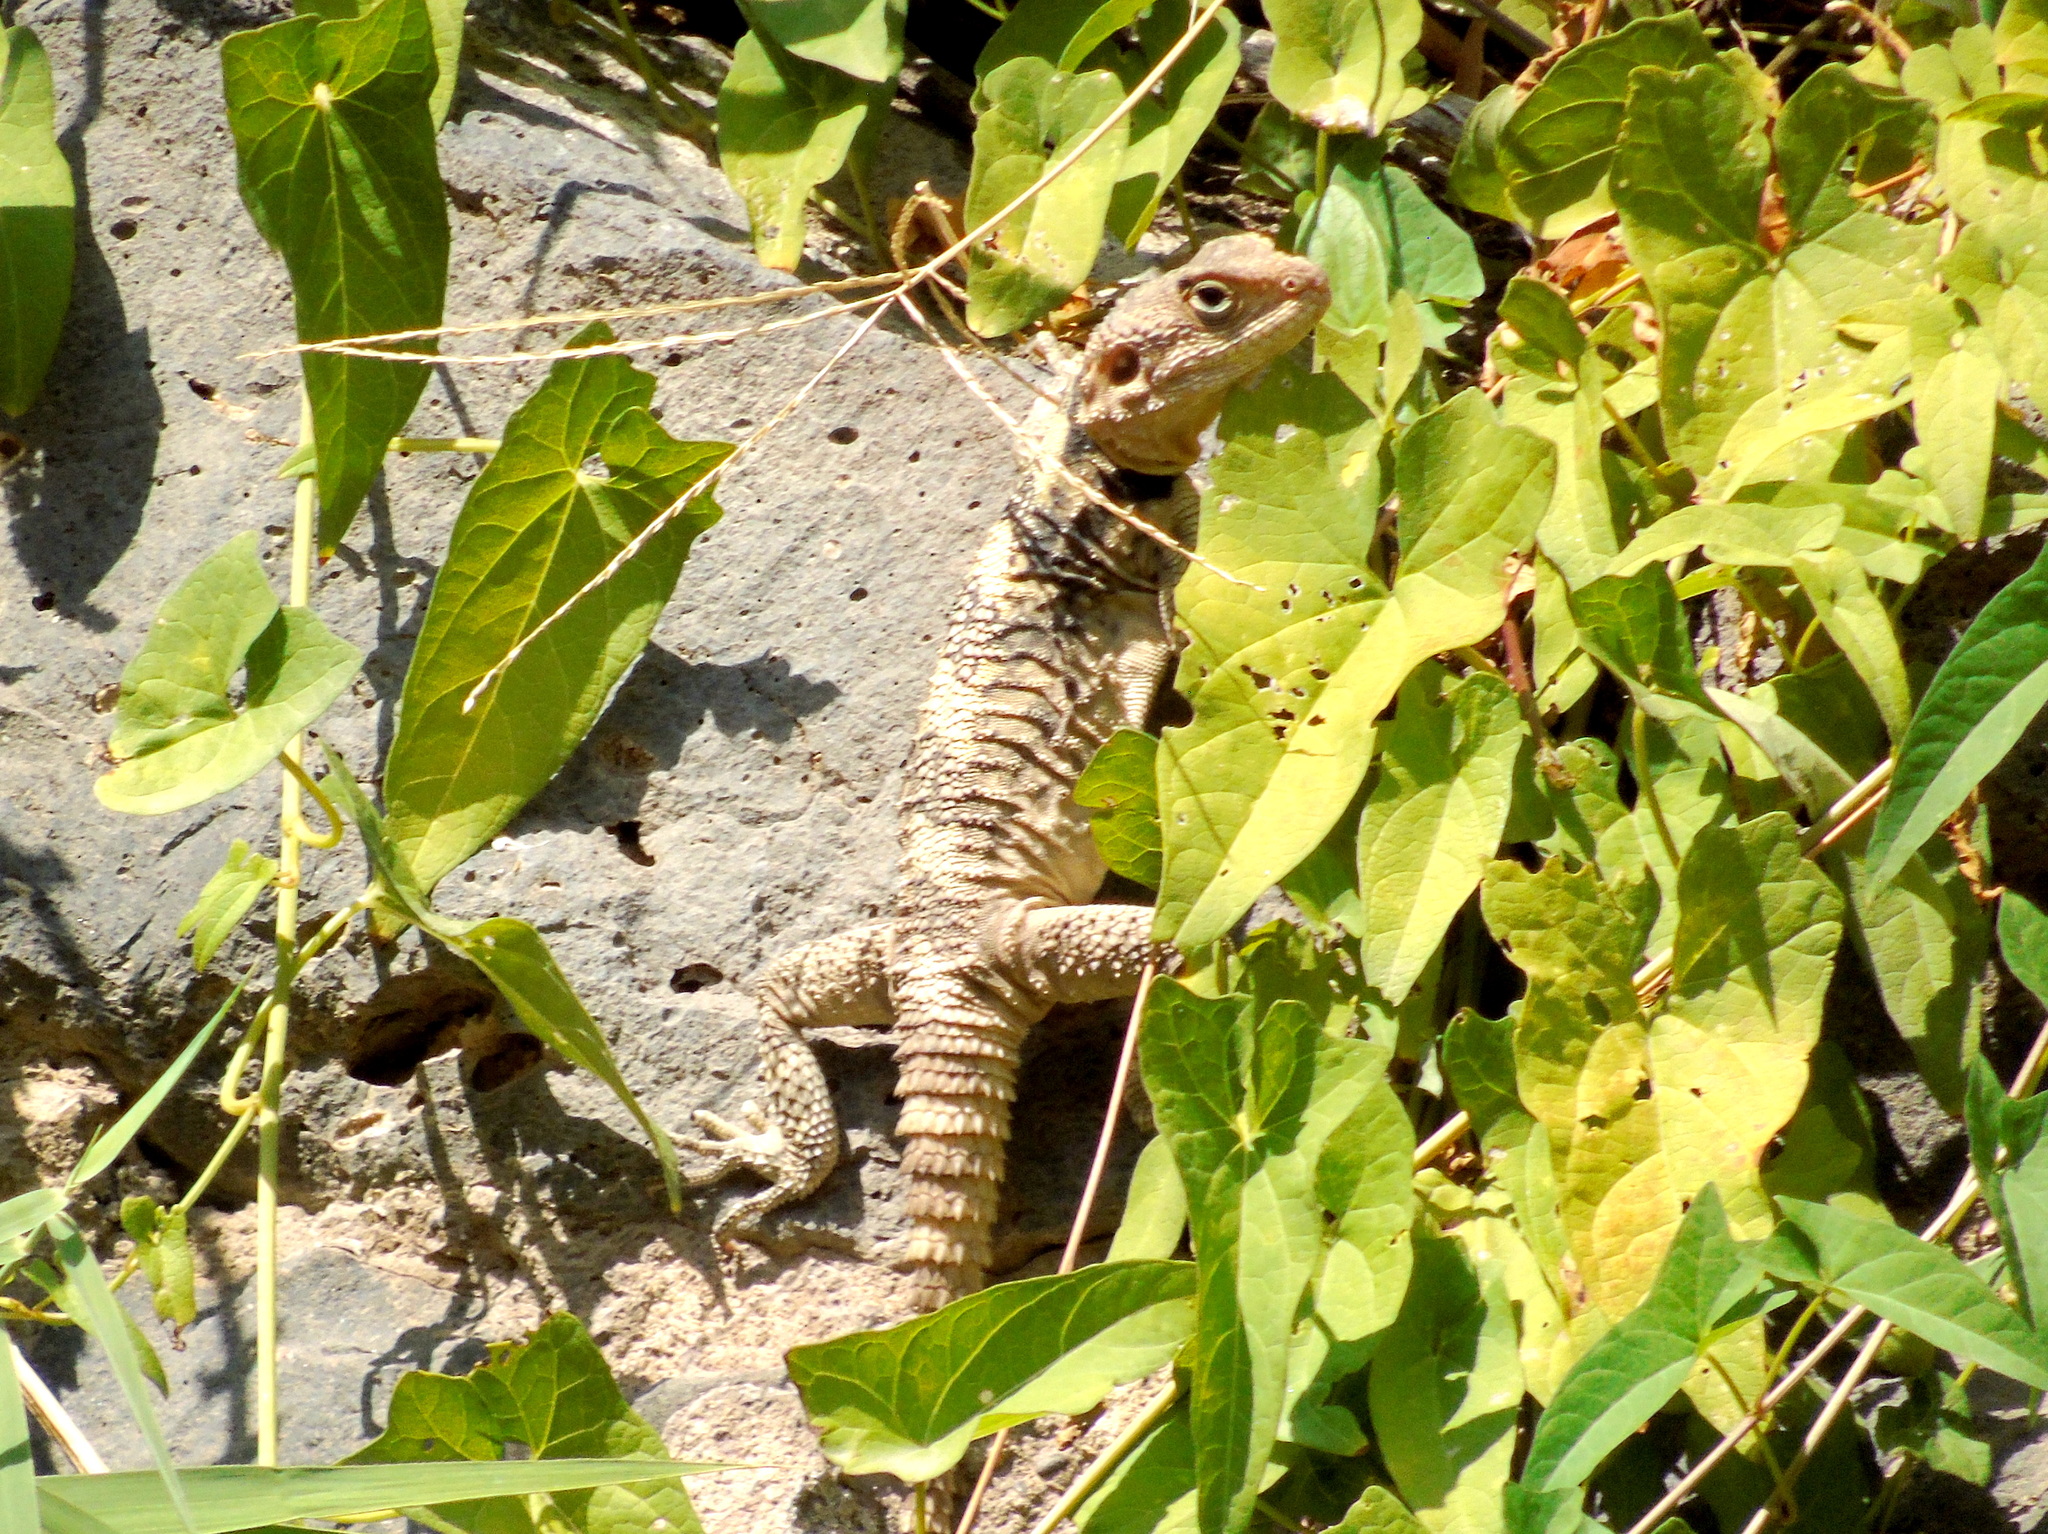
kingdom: Animalia
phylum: Chordata
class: Squamata
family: Agamidae
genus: Stellagama
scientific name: Stellagama stellio
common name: Starred agama
